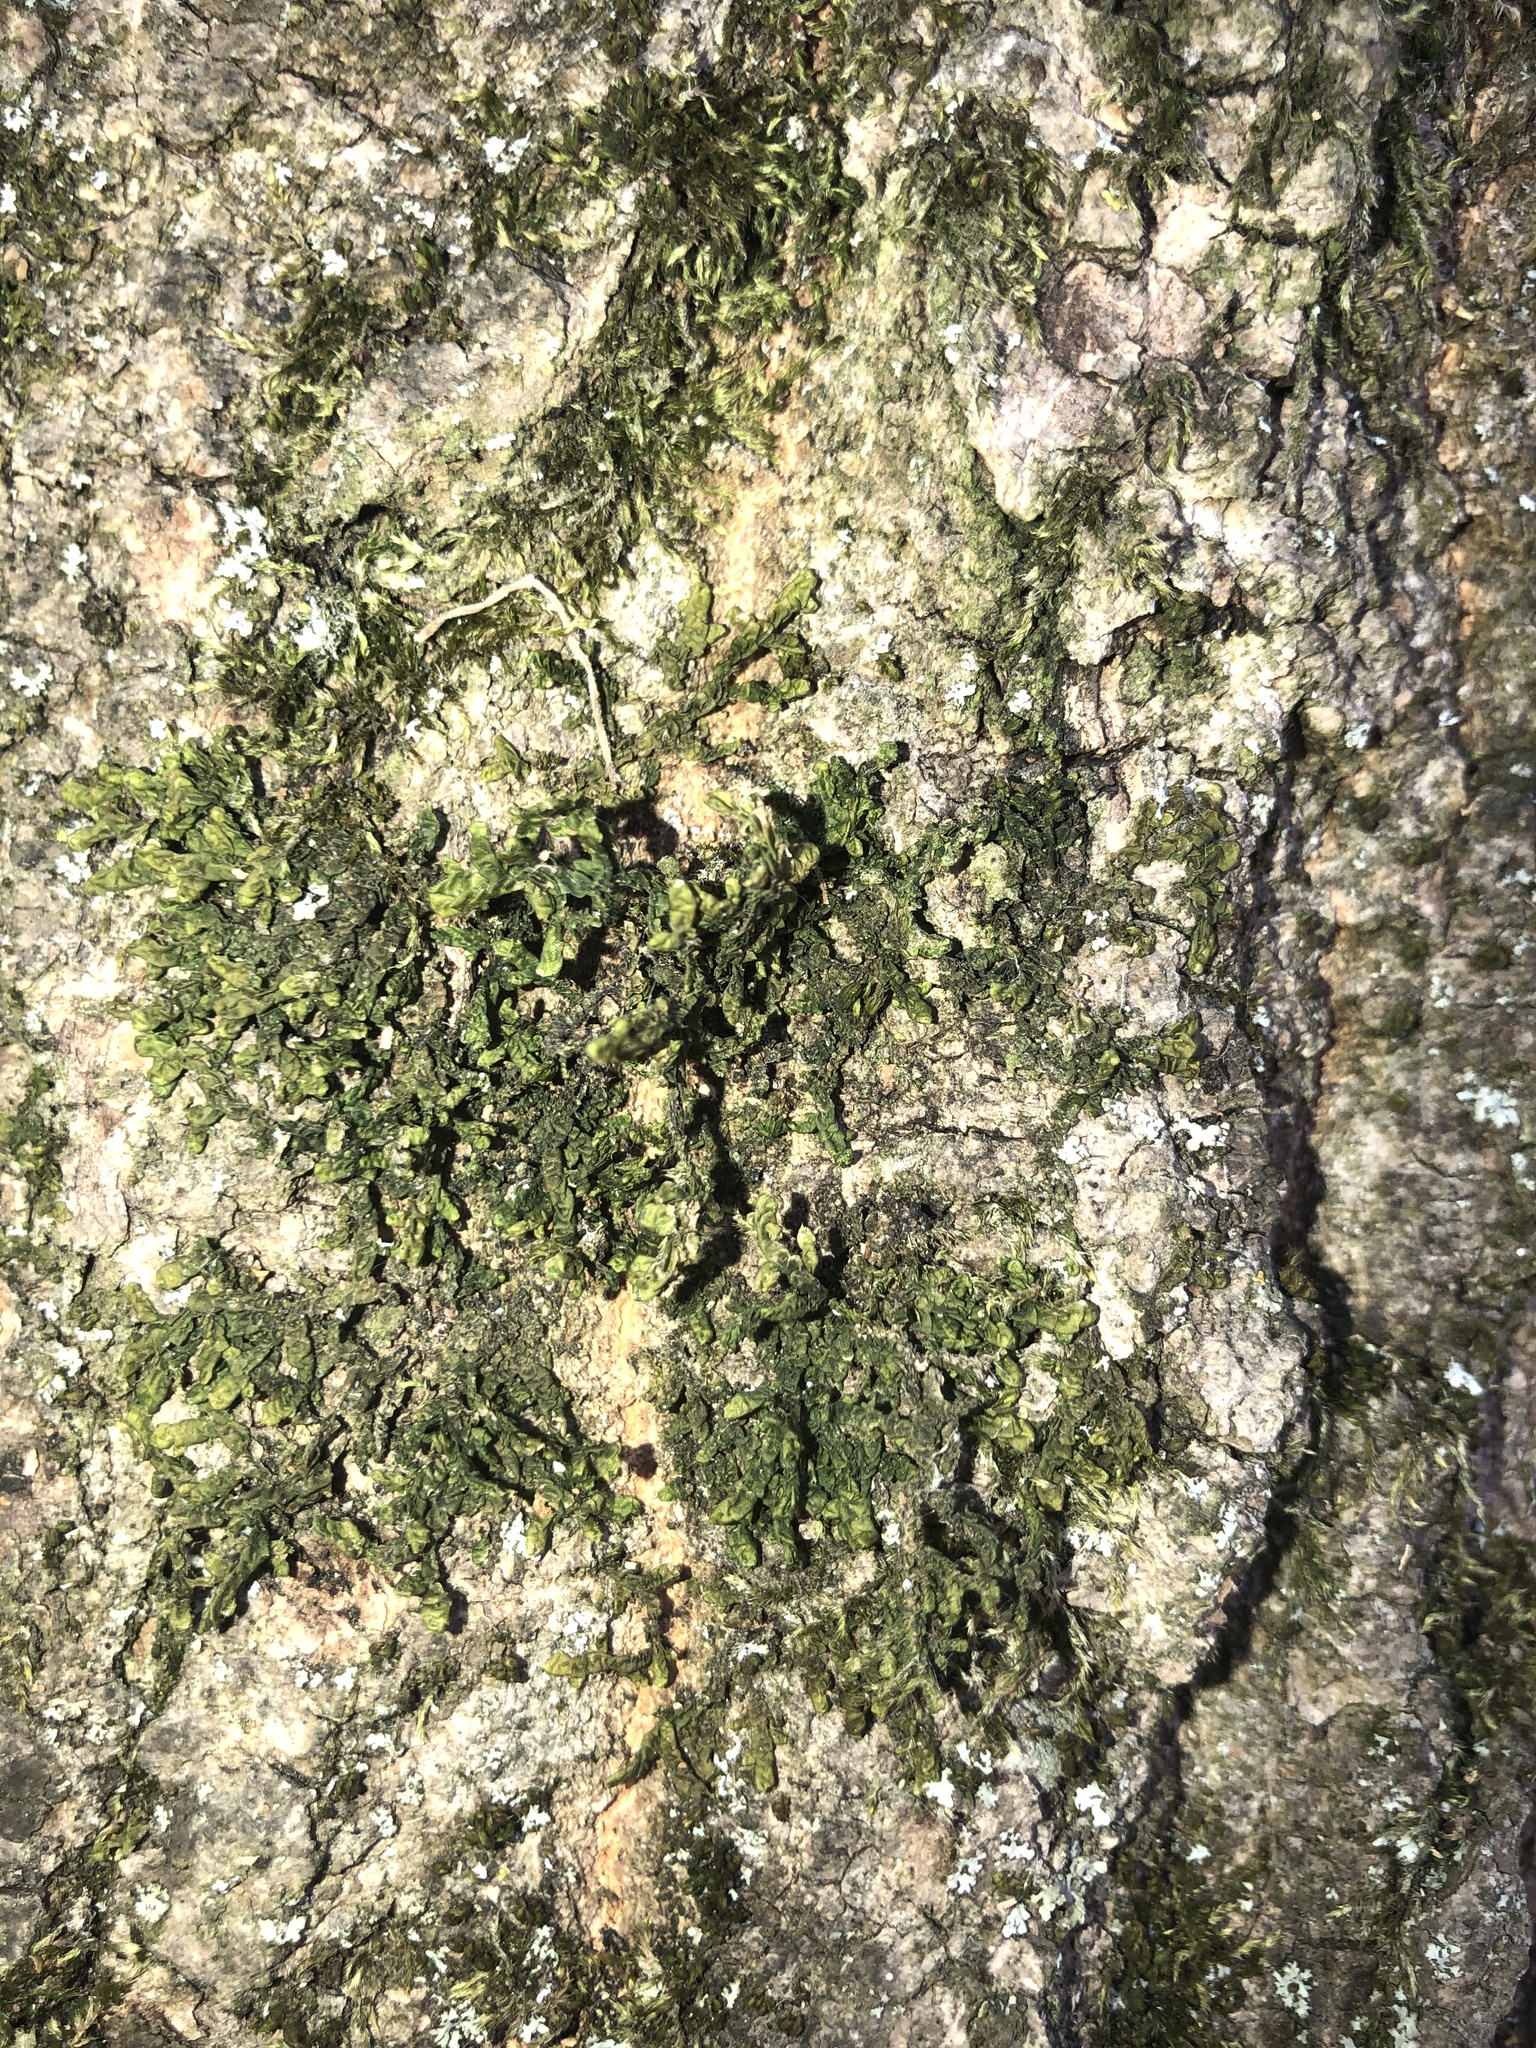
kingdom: Plantae
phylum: Marchantiophyta
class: Jungermanniopsida
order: Porellales
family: Porellaceae
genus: Porella
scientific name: Porella platyphylla
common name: Wall scalewort
